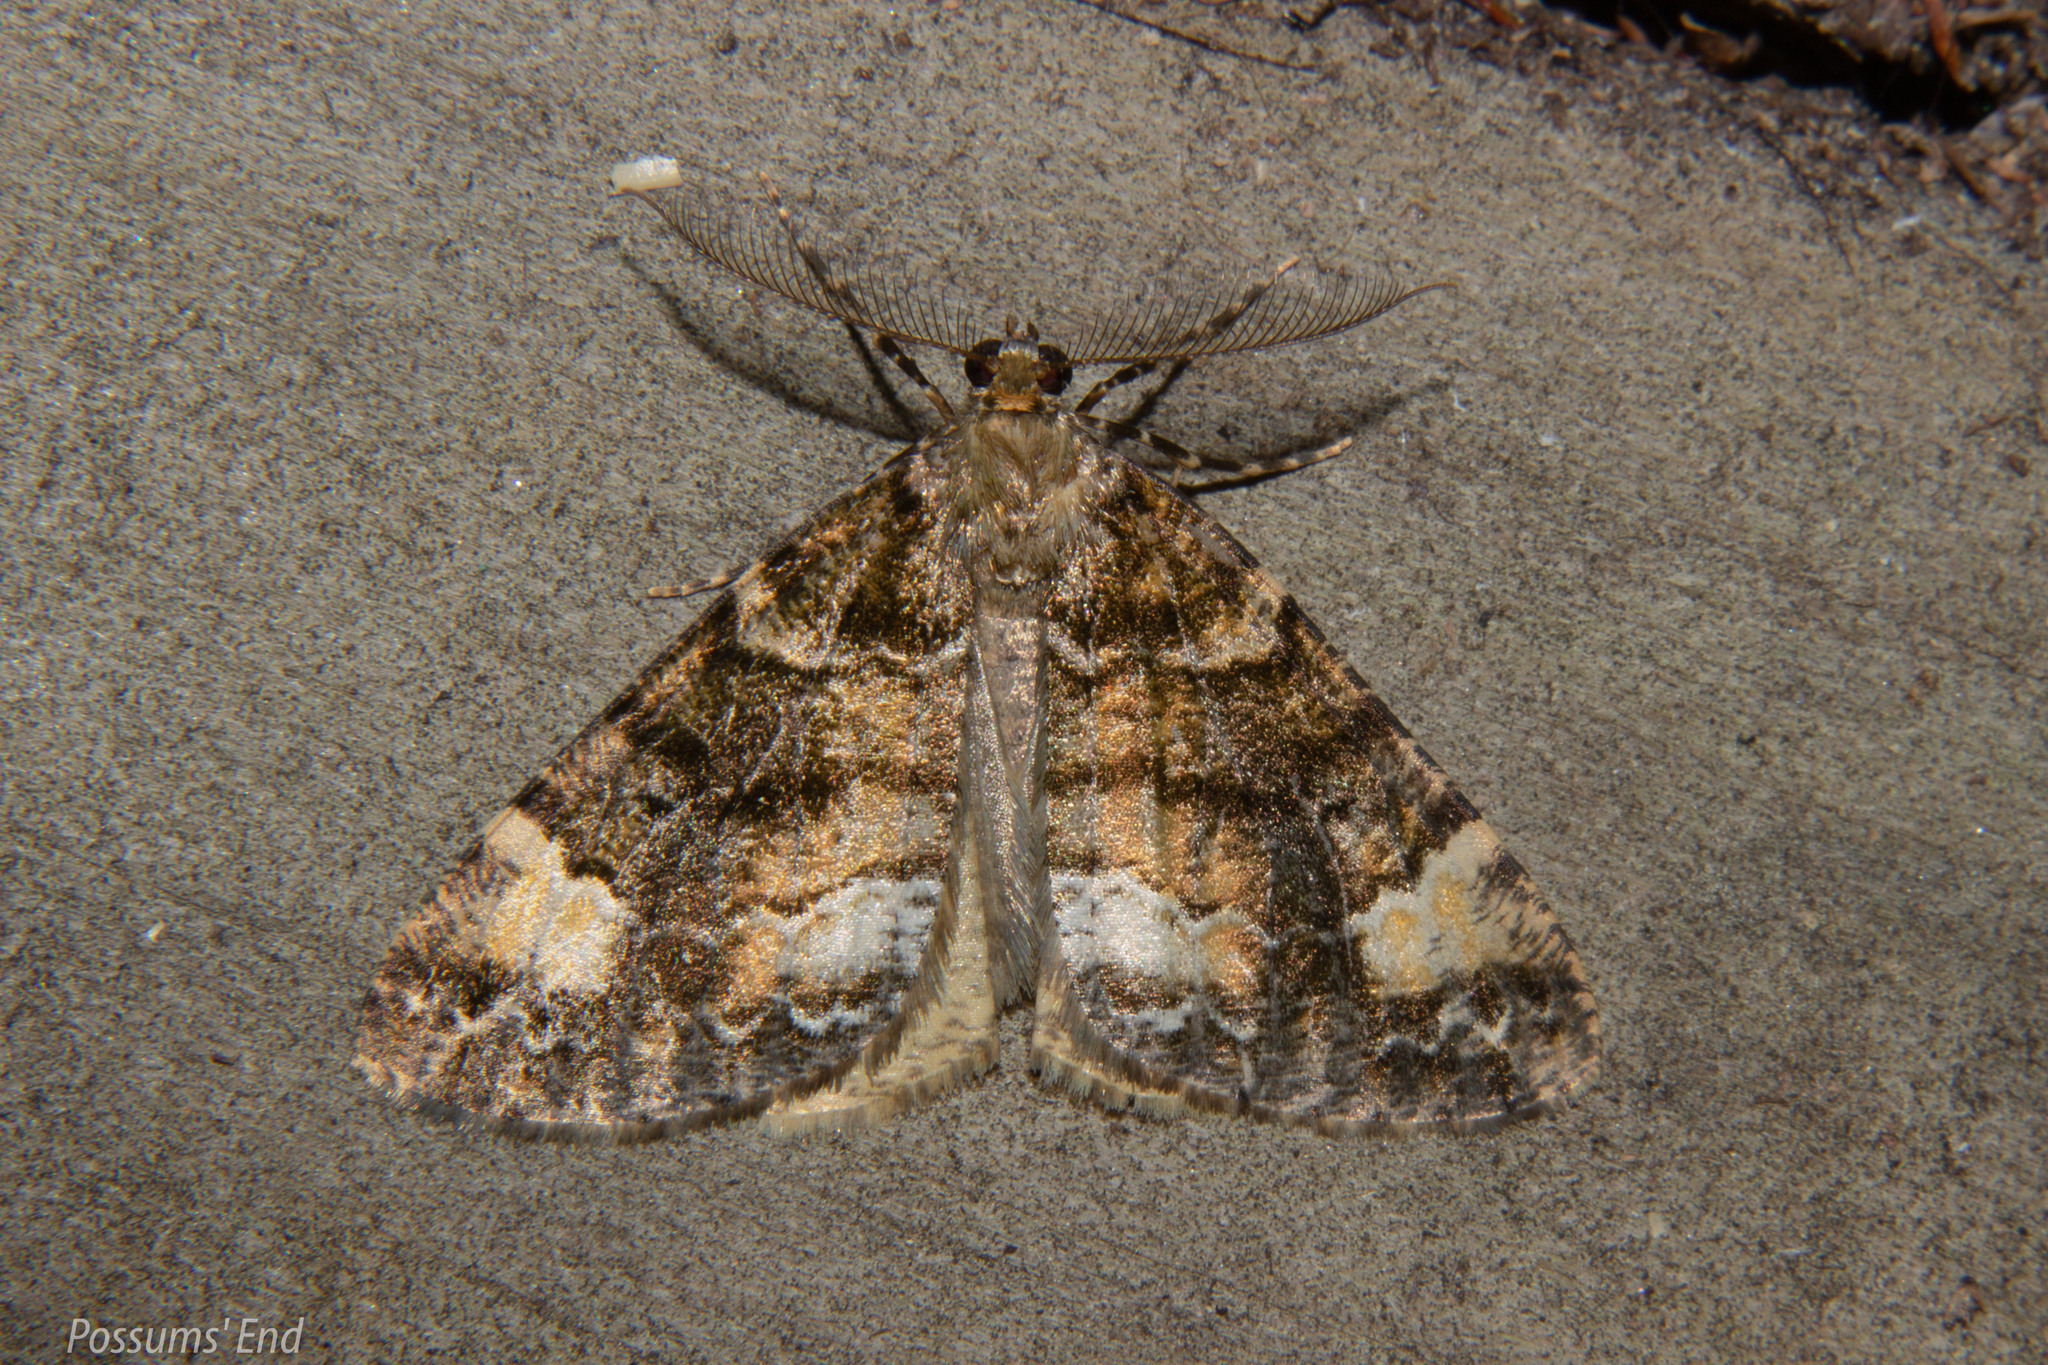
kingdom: Animalia
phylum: Arthropoda
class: Insecta
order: Lepidoptera
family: Geometridae
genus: Pseudocoremia
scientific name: Pseudocoremia productata
